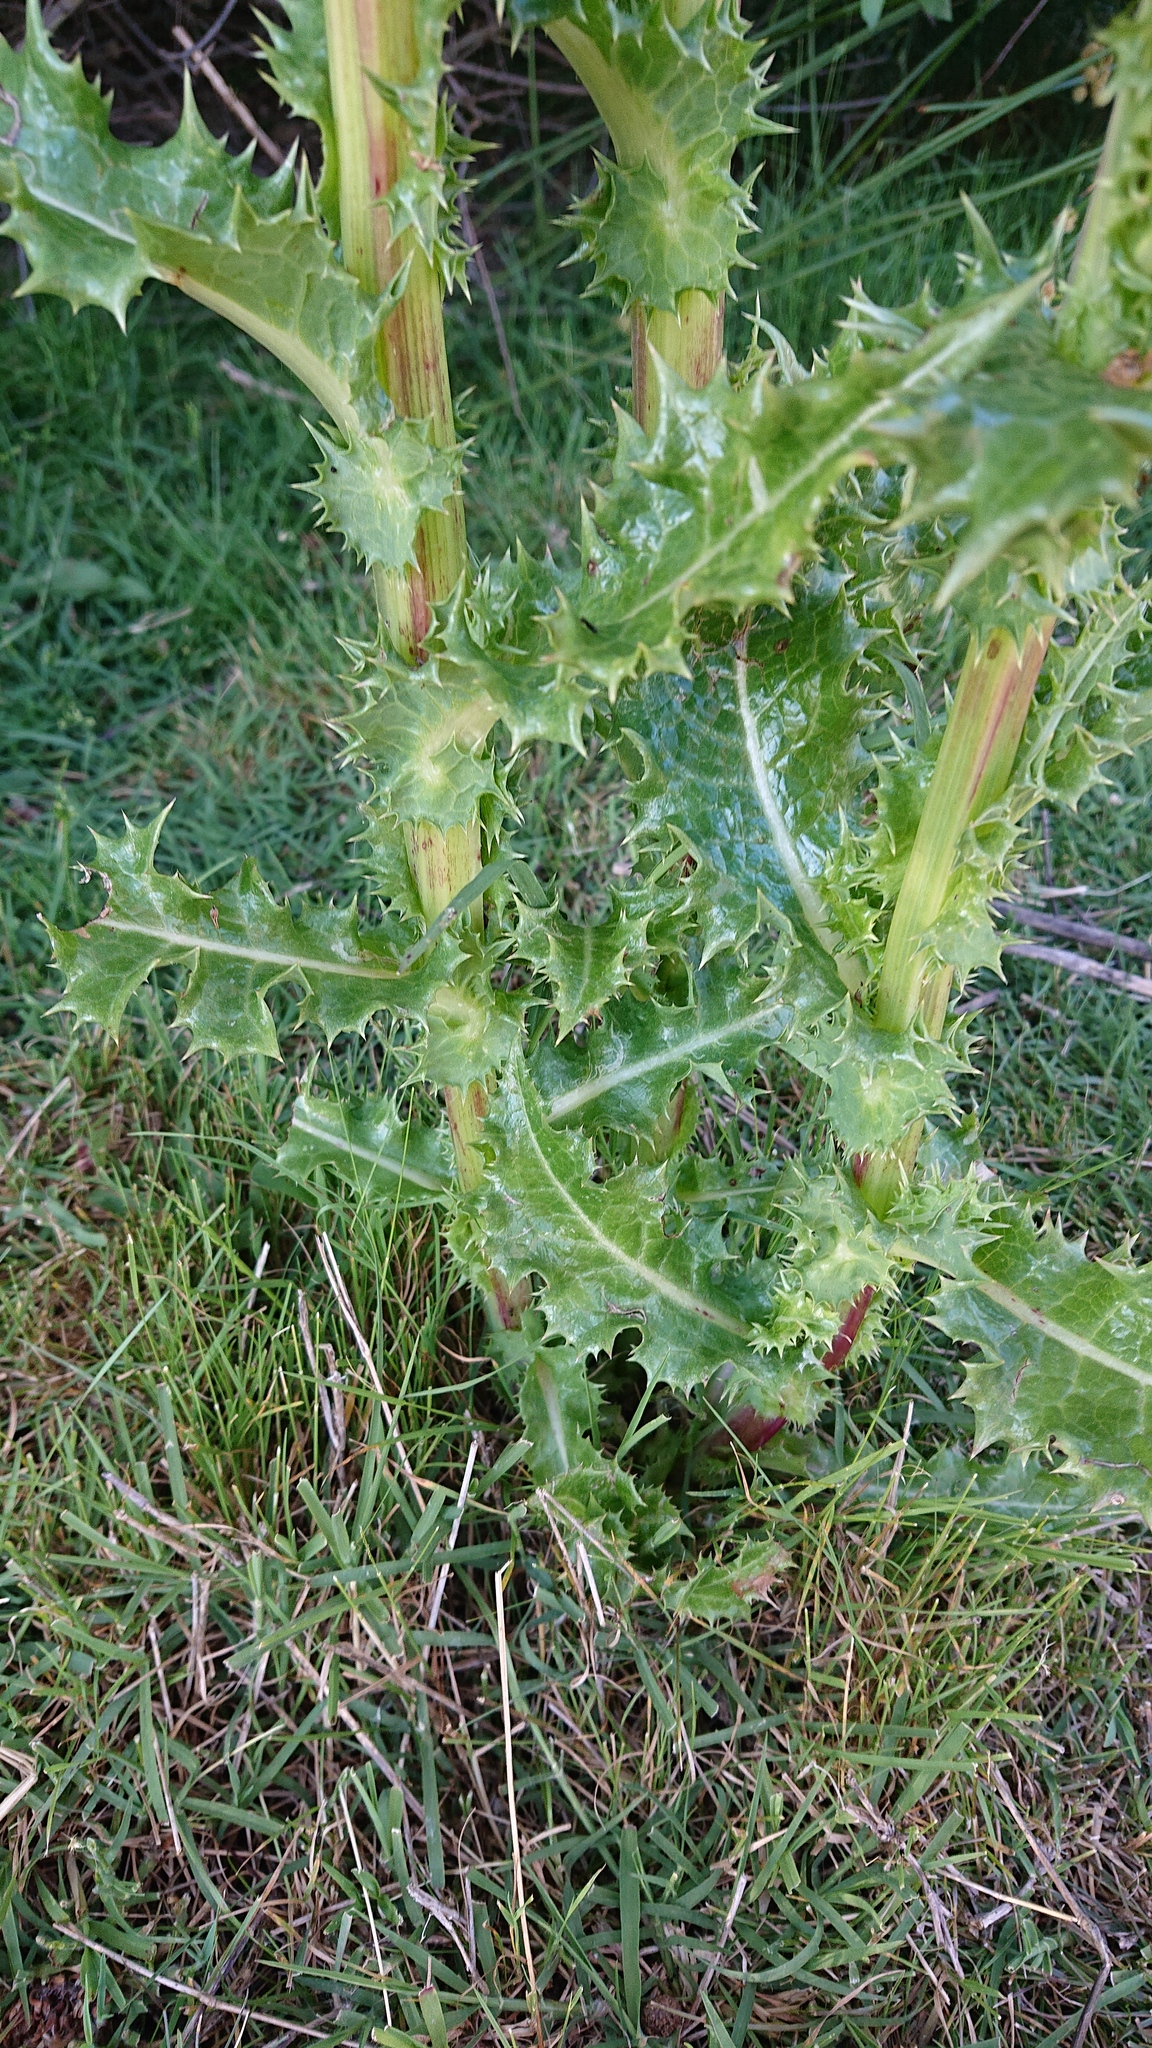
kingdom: Plantae
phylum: Tracheophyta
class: Magnoliopsida
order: Asterales
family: Asteraceae
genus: Sonchus
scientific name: Sonchus asper
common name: Prickly sow-thistle
